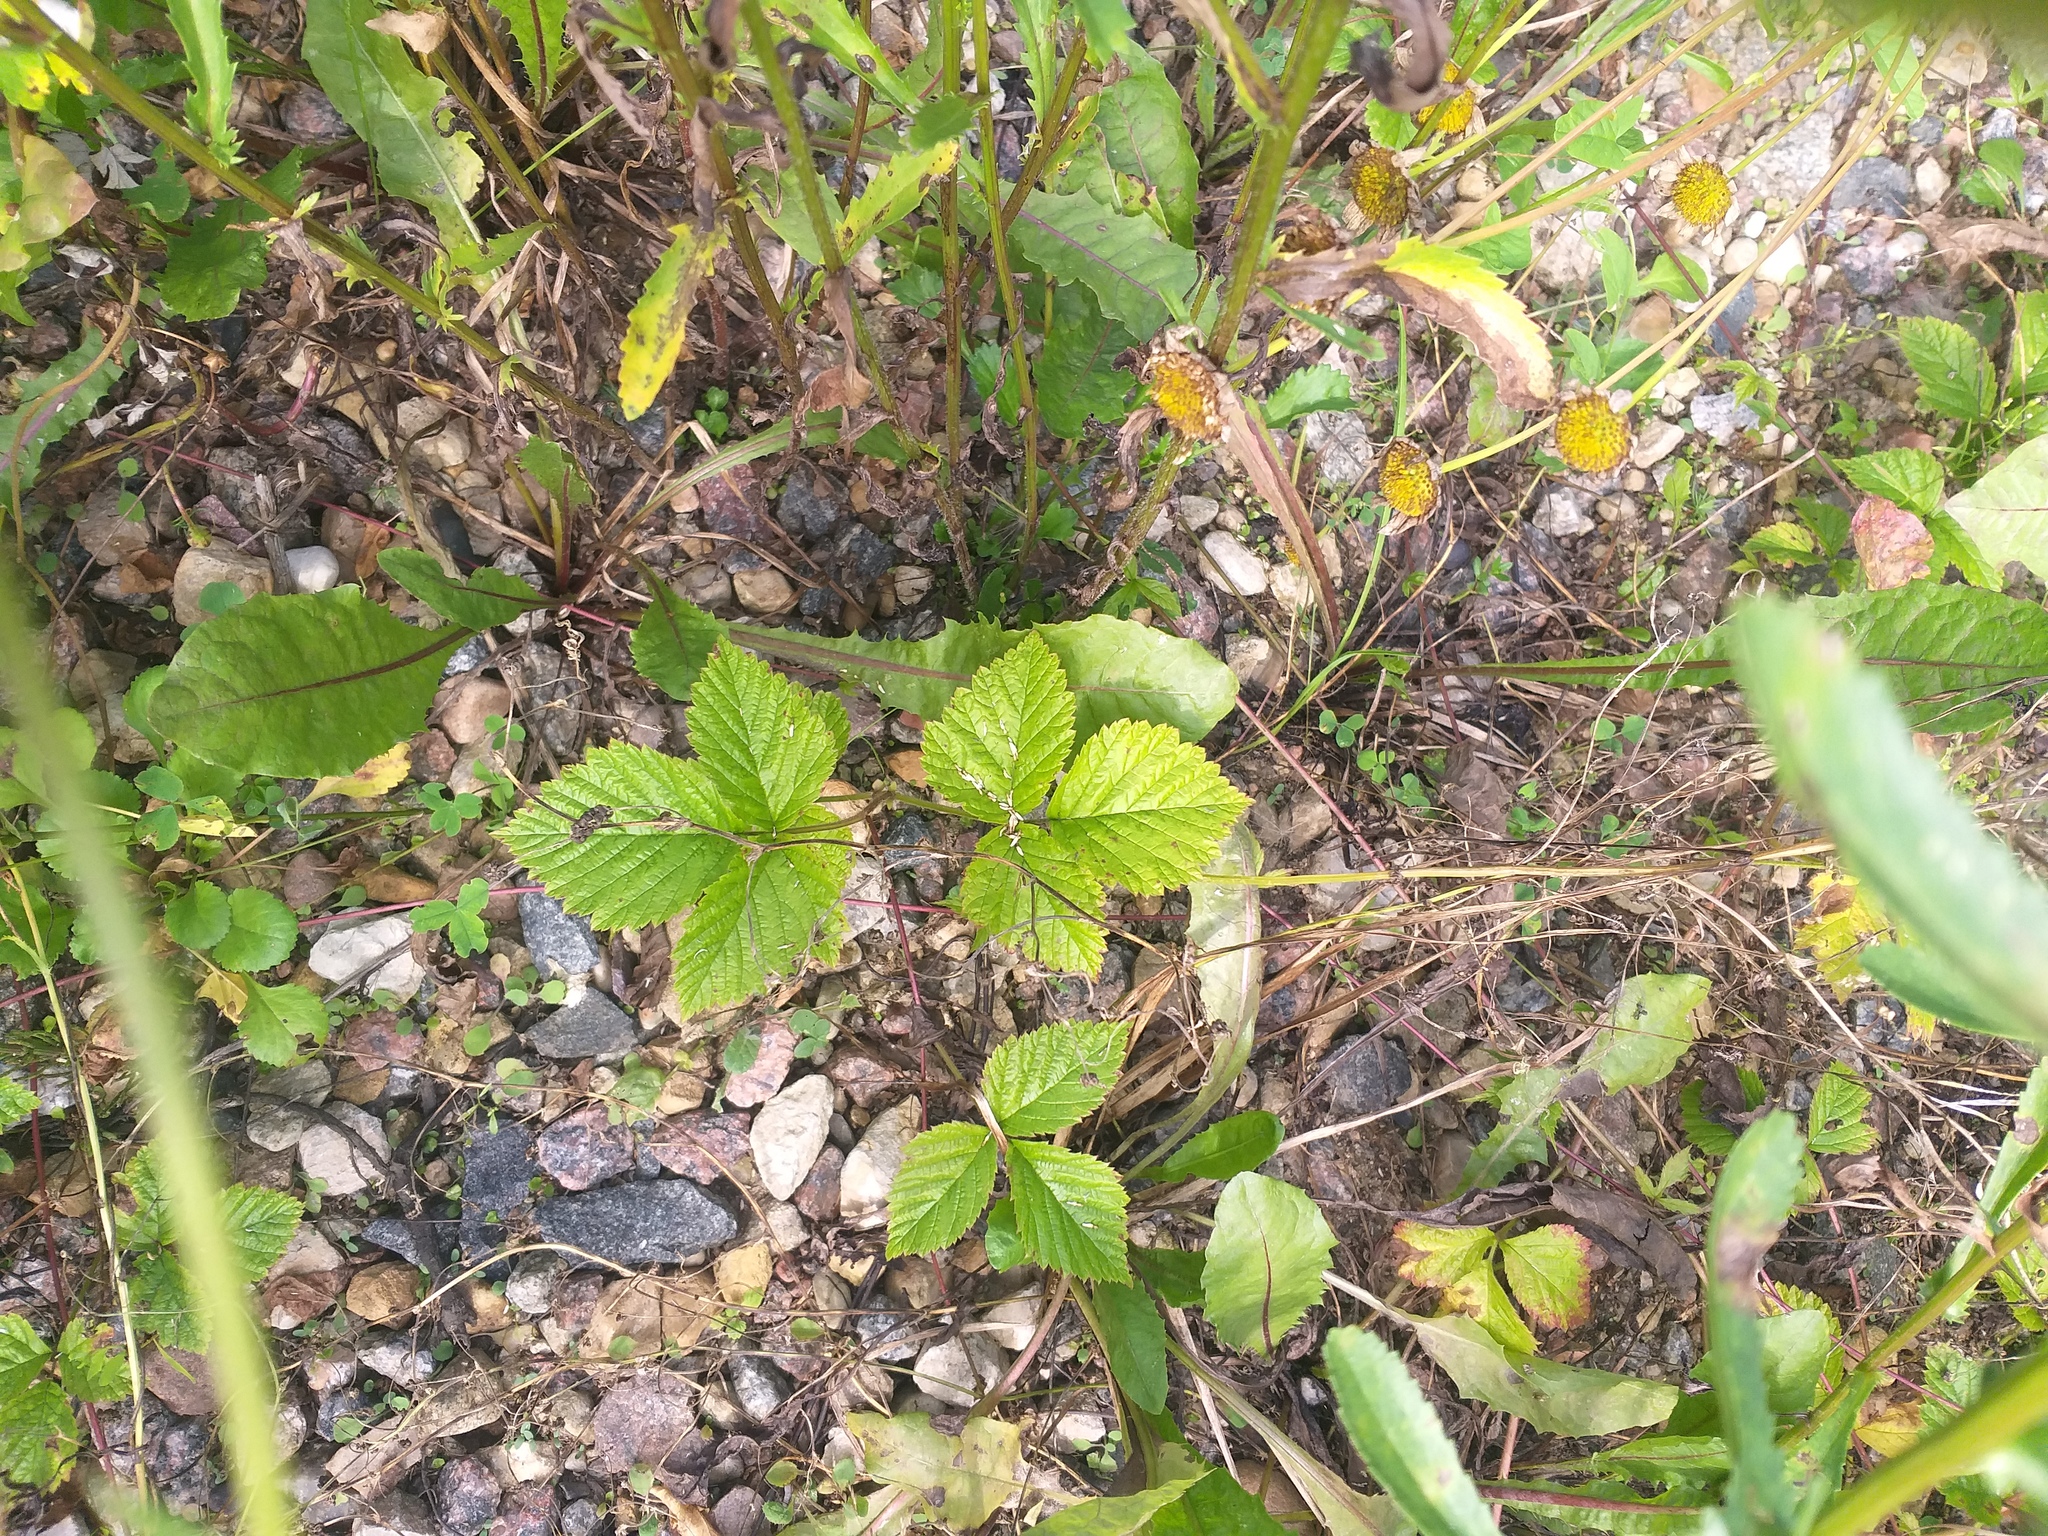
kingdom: Plantae
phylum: Tracheophyta
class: Magnoliopsida
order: Rosales
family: Rosaceae
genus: Rubus
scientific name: Rubus saxatilis
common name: Stone bramble
